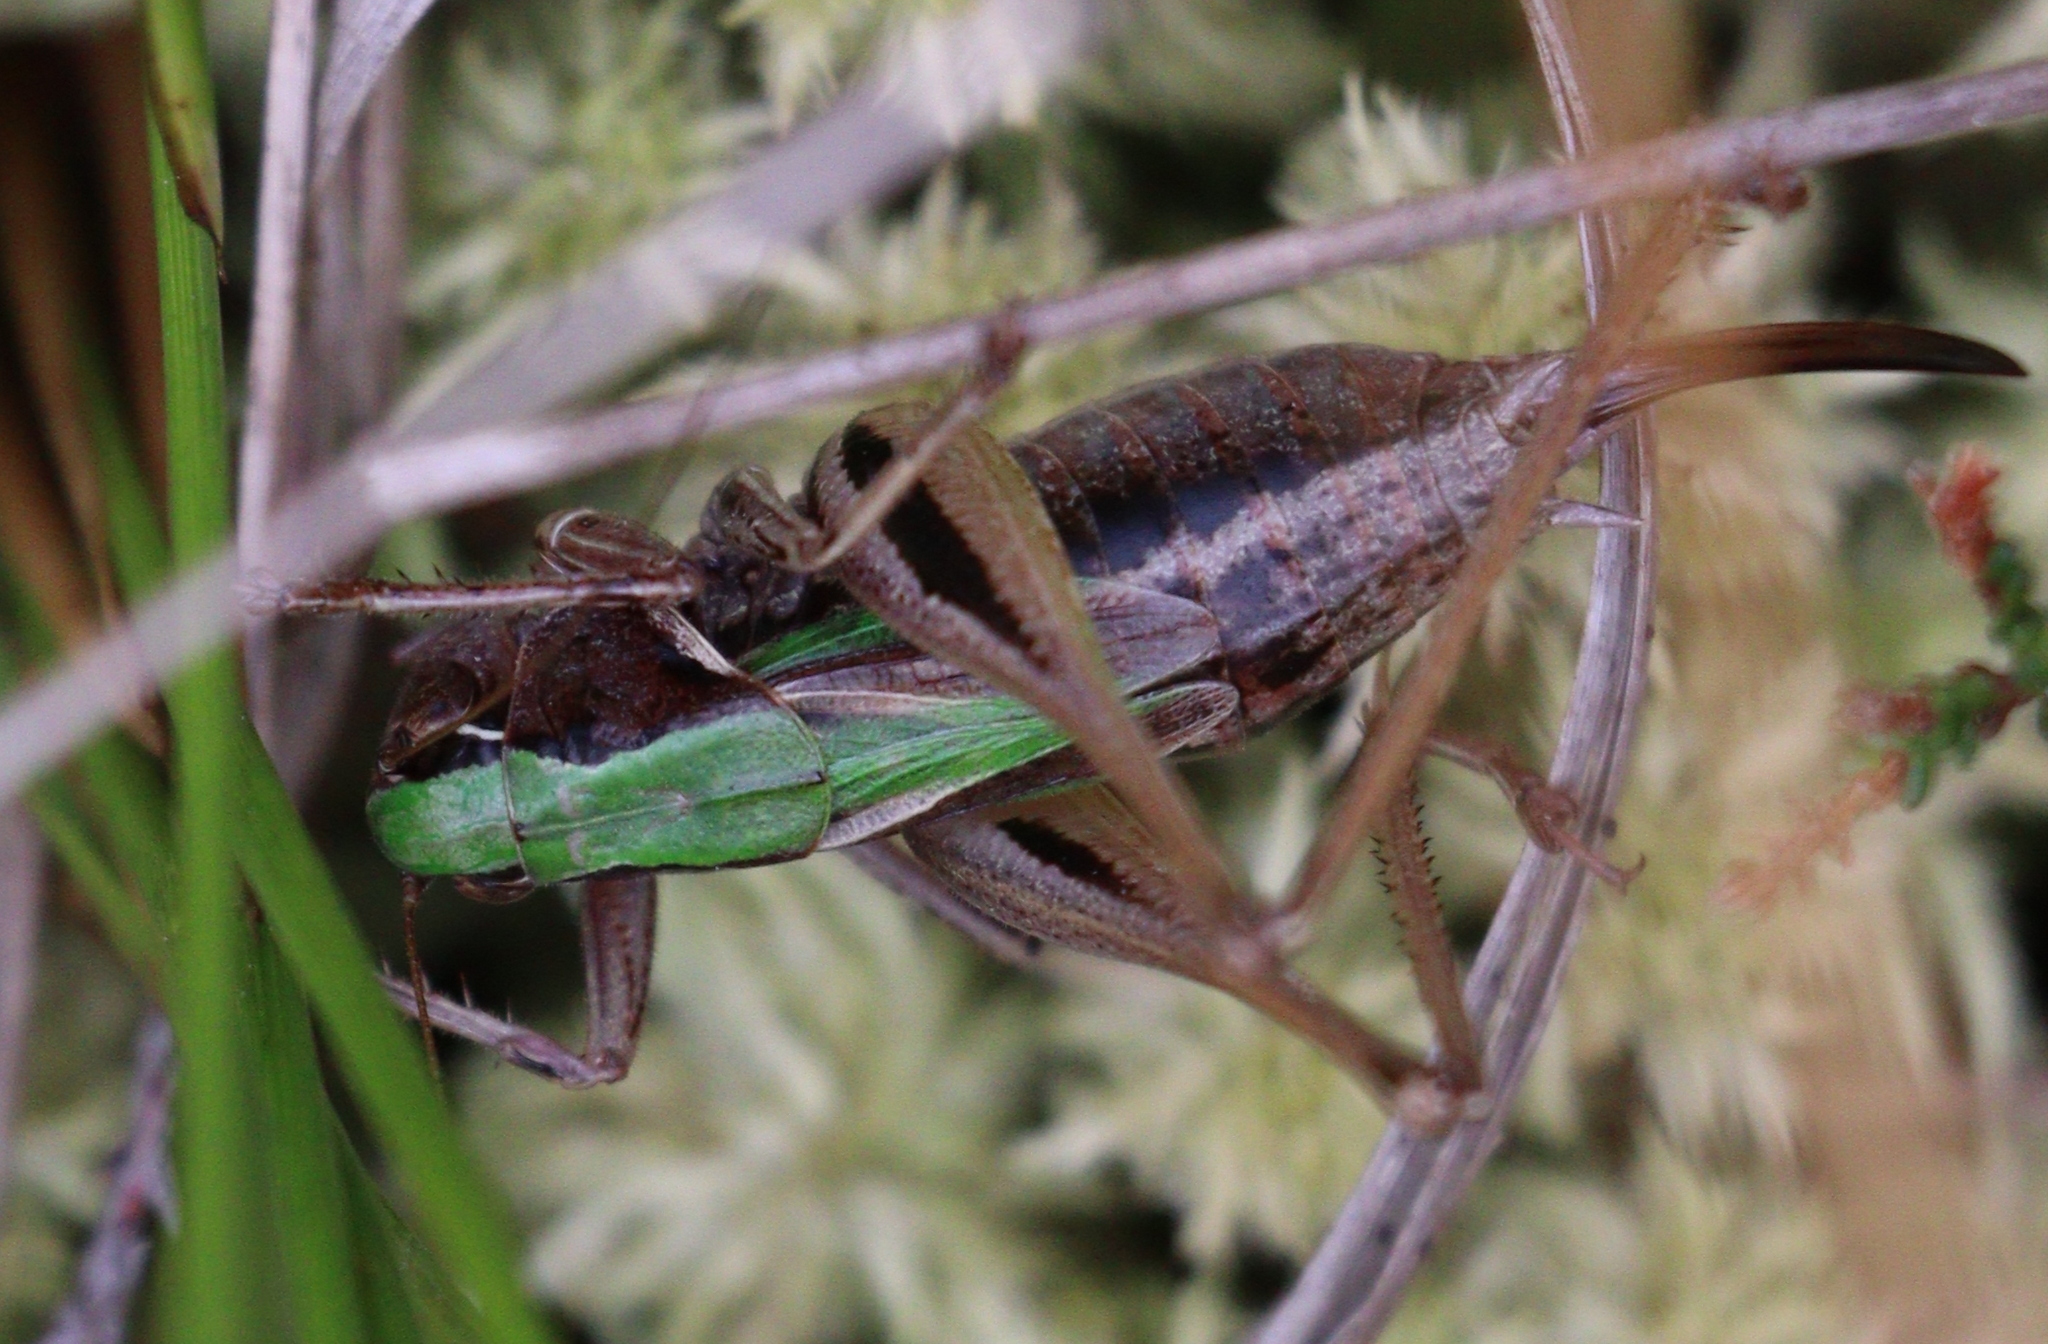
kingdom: Animalia
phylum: Arthropoda
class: Insecta
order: Orthoptera
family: Tettigoniidae
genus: Metrioptera
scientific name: Metrioptera brachyptera
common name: Bog bush-cricket
